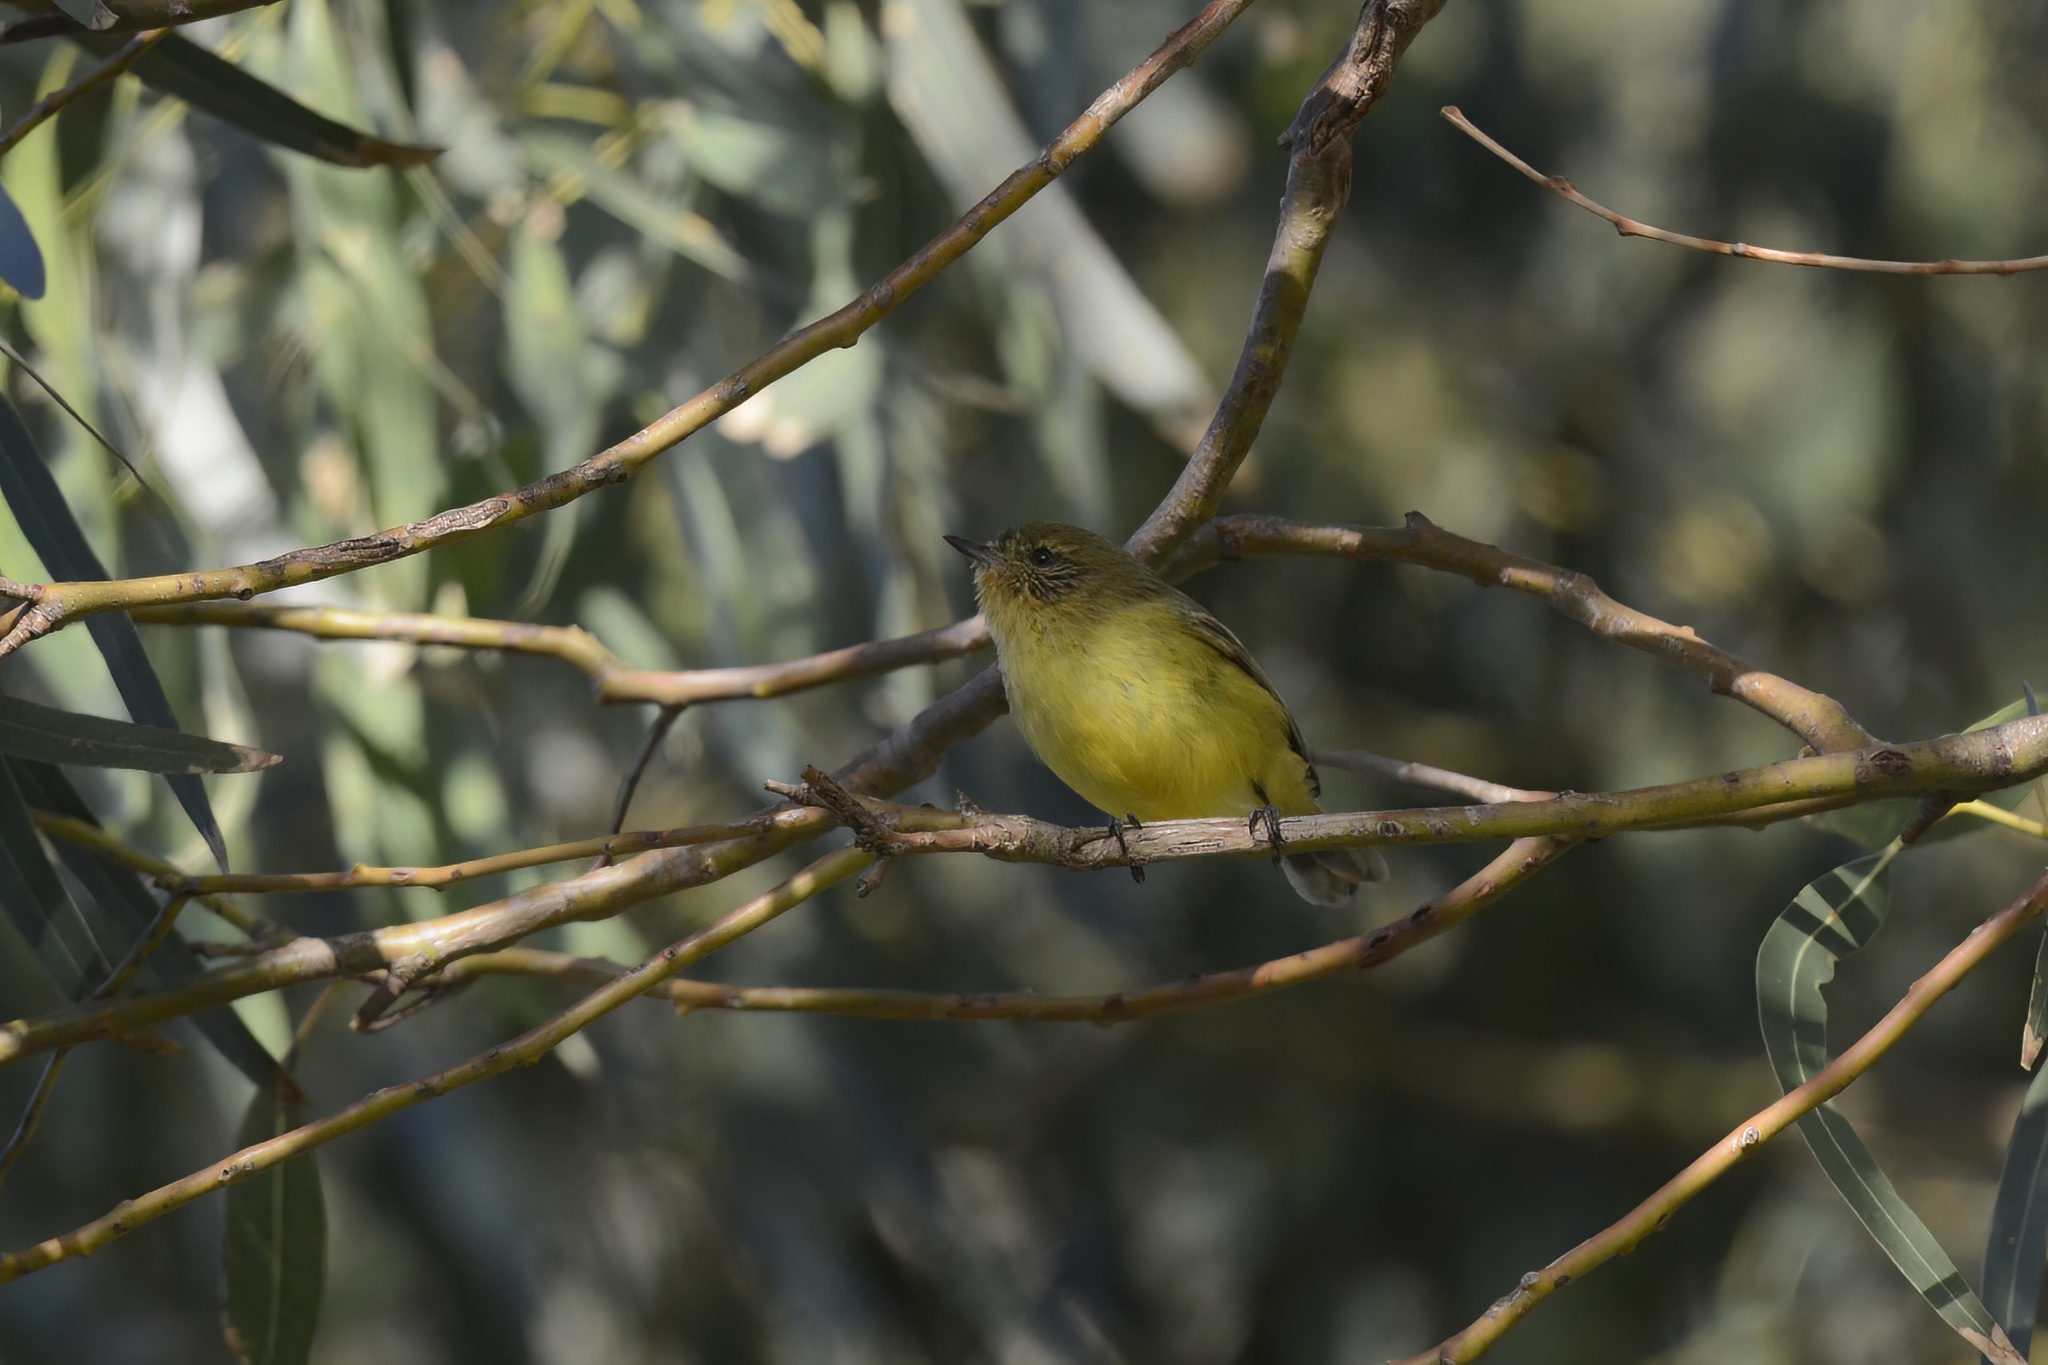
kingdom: Animalia
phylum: Chordata
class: Aves
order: Passeriformes
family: Acanthizidae
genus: Acanthiza
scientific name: Acanthiza nana
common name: Yellow thornbill
